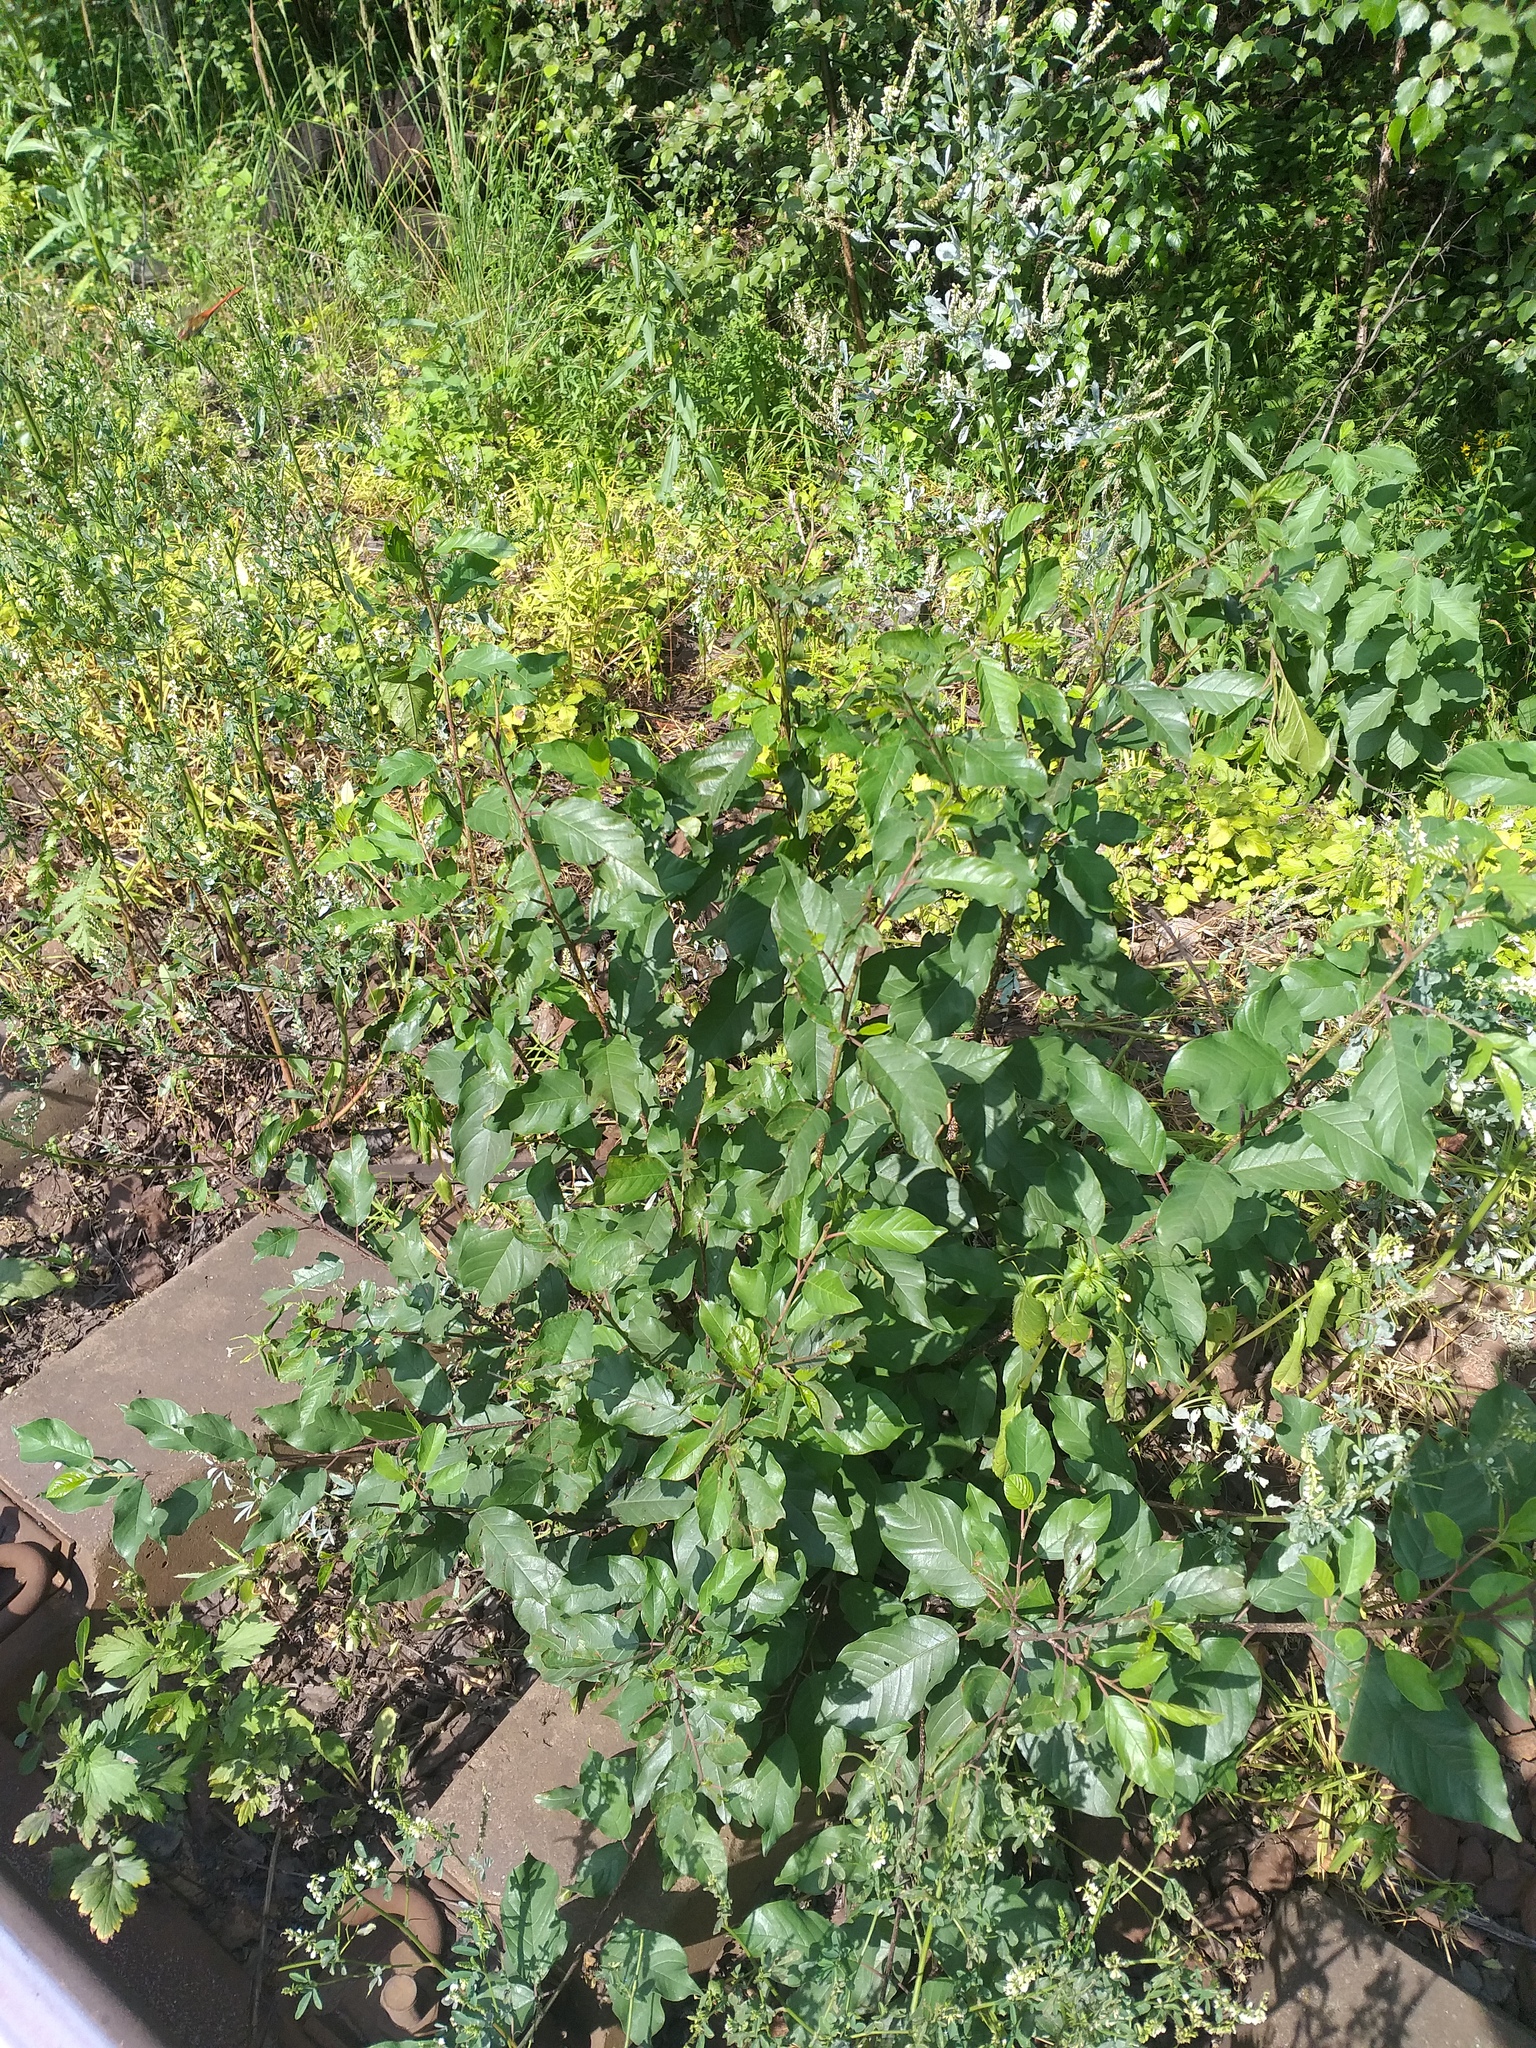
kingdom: Plantae
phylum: Tracheophyta
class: Magnoliopsida
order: Rosales
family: Rhamnaceae
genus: Frangula
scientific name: Frangula alnus
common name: Alder buckthorn
